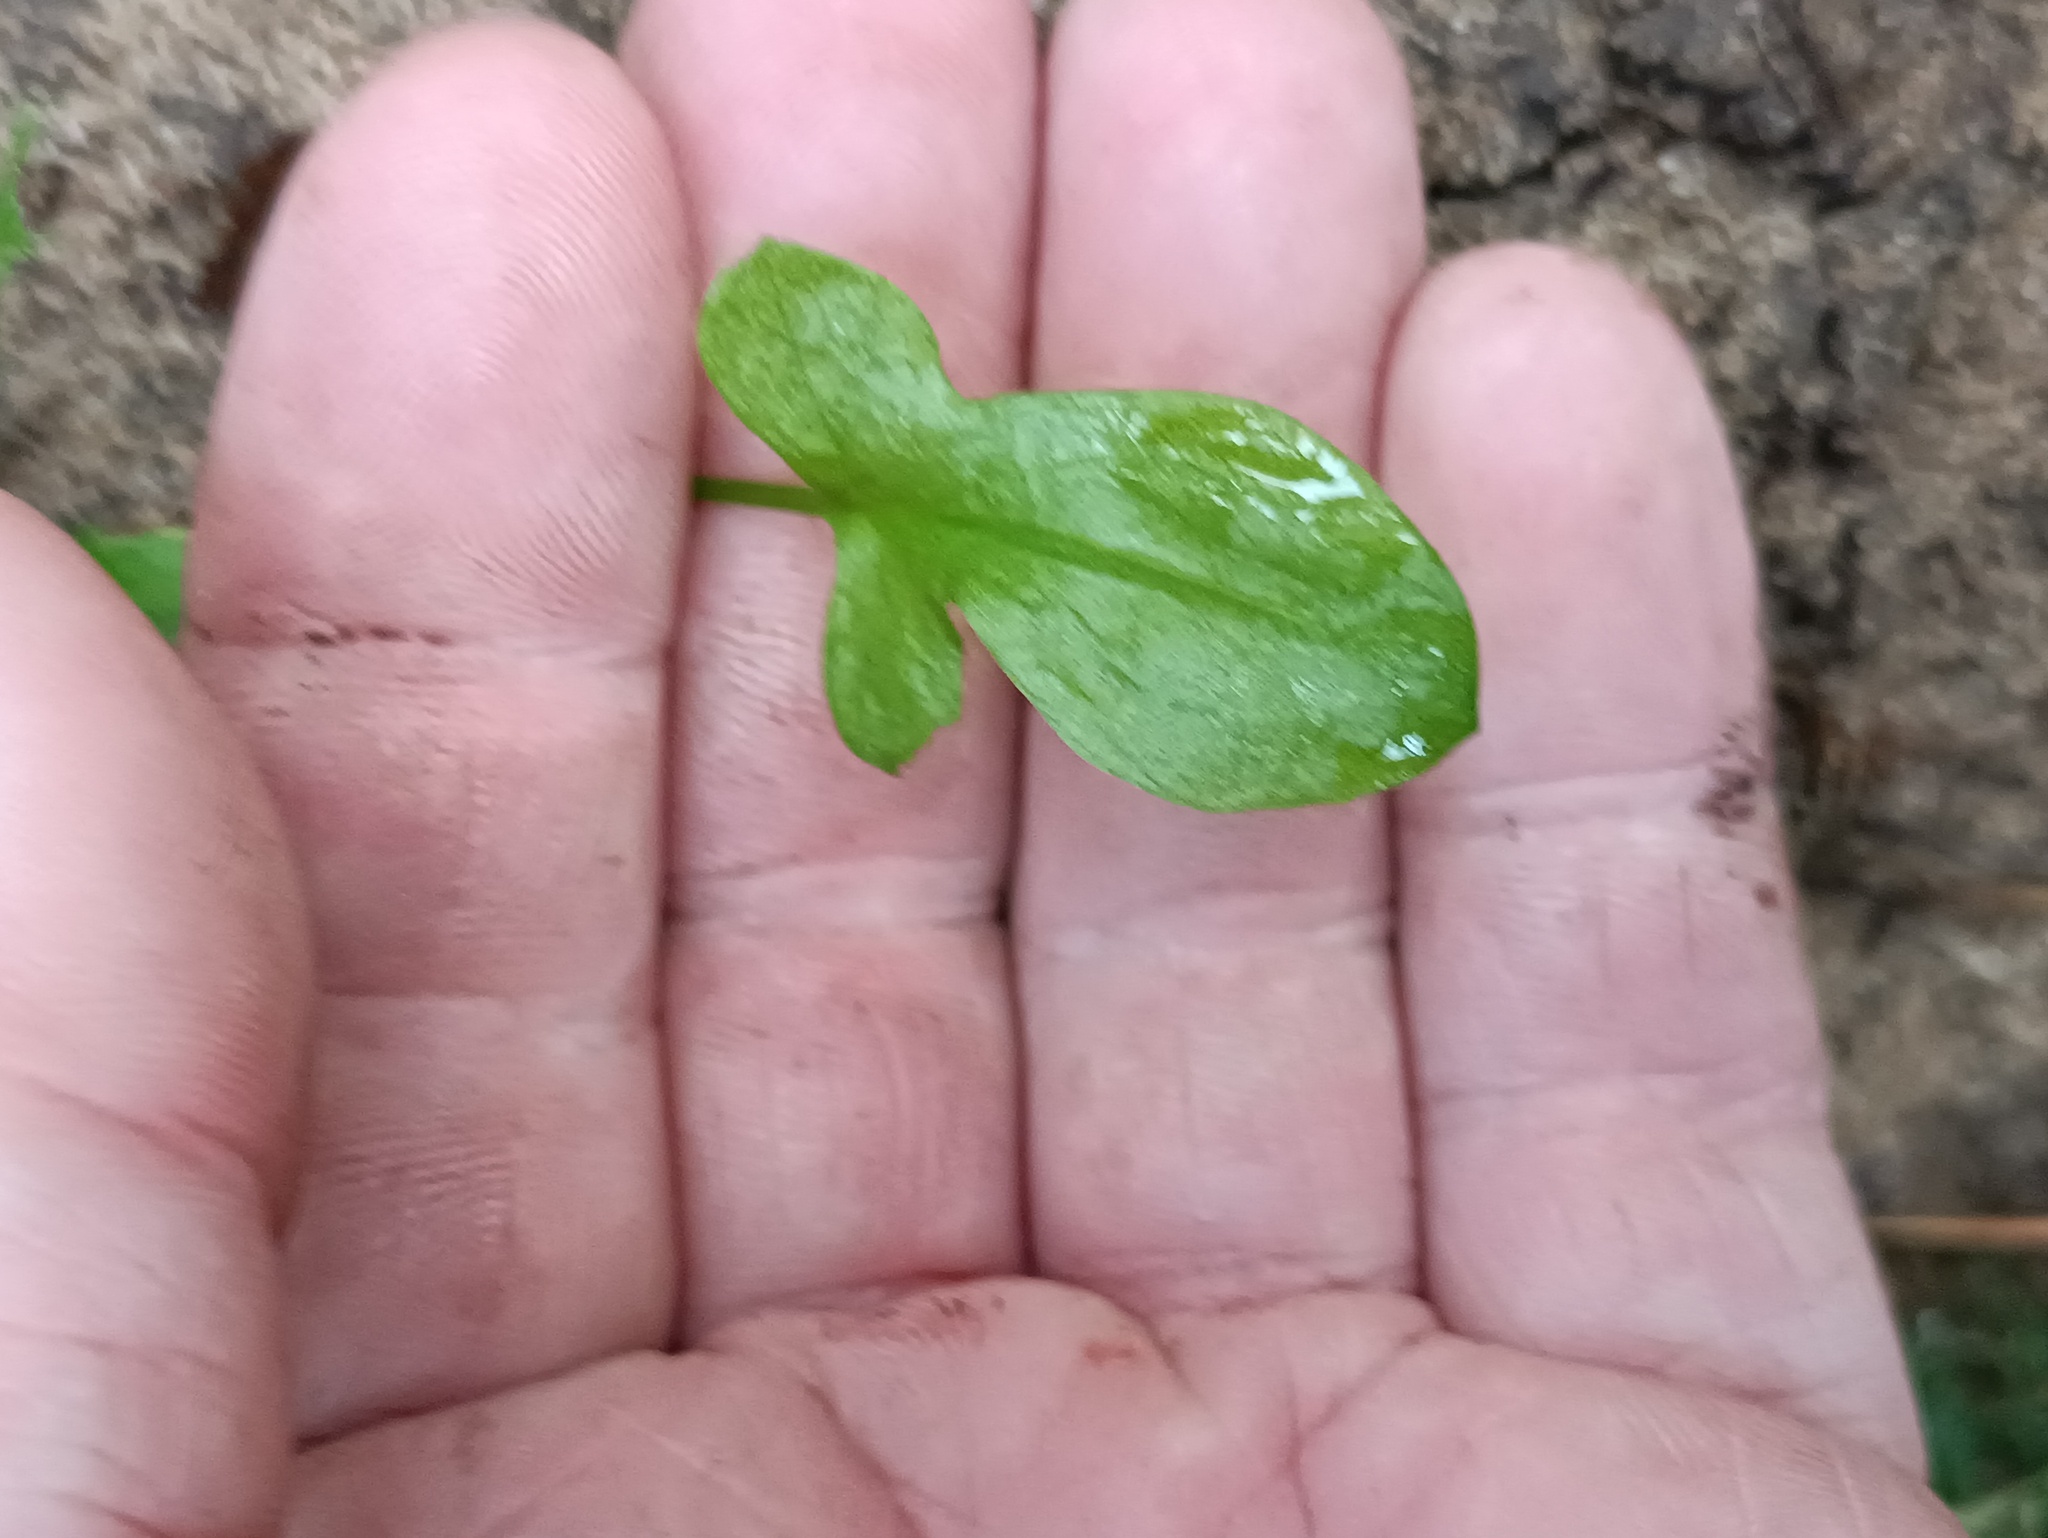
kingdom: Plantae
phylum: Tracheophyta
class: Magnoliopsida
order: Caryophyllales
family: Polygonaceae
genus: Rumex
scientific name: Rumex acetosella
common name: Common sheep sorrel
